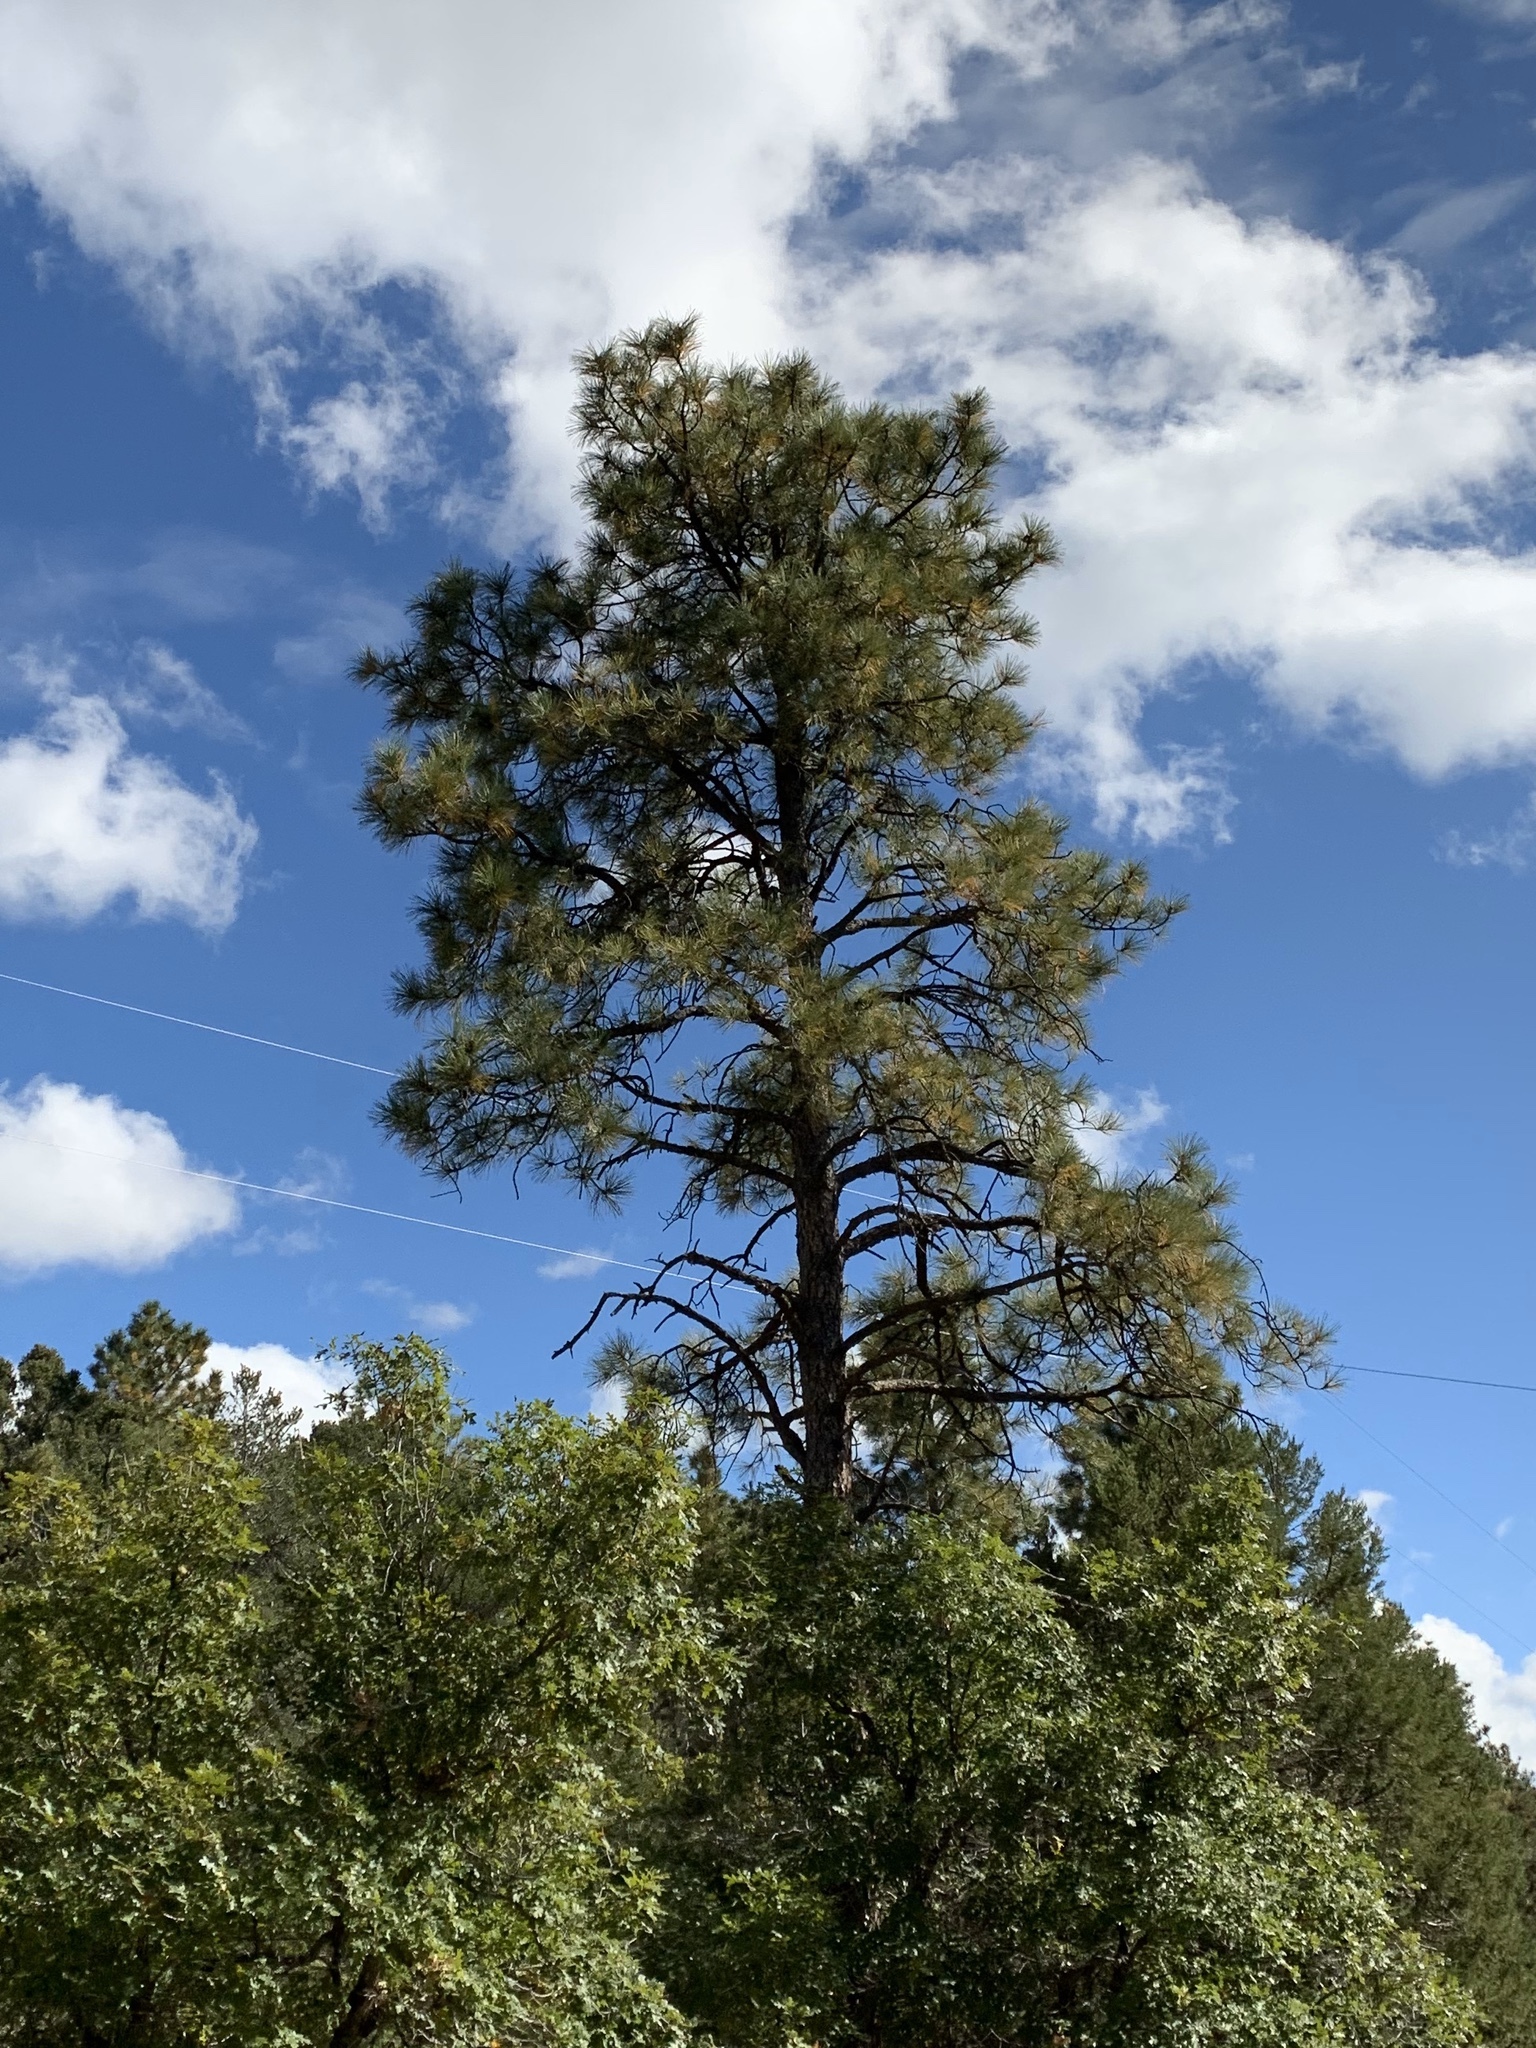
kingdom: Plantae
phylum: Tracheophyta
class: Pinopsida
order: Pinales
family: Pinaceae
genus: Pinus
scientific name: Pinus ponderosa
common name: Western yellow-pine
